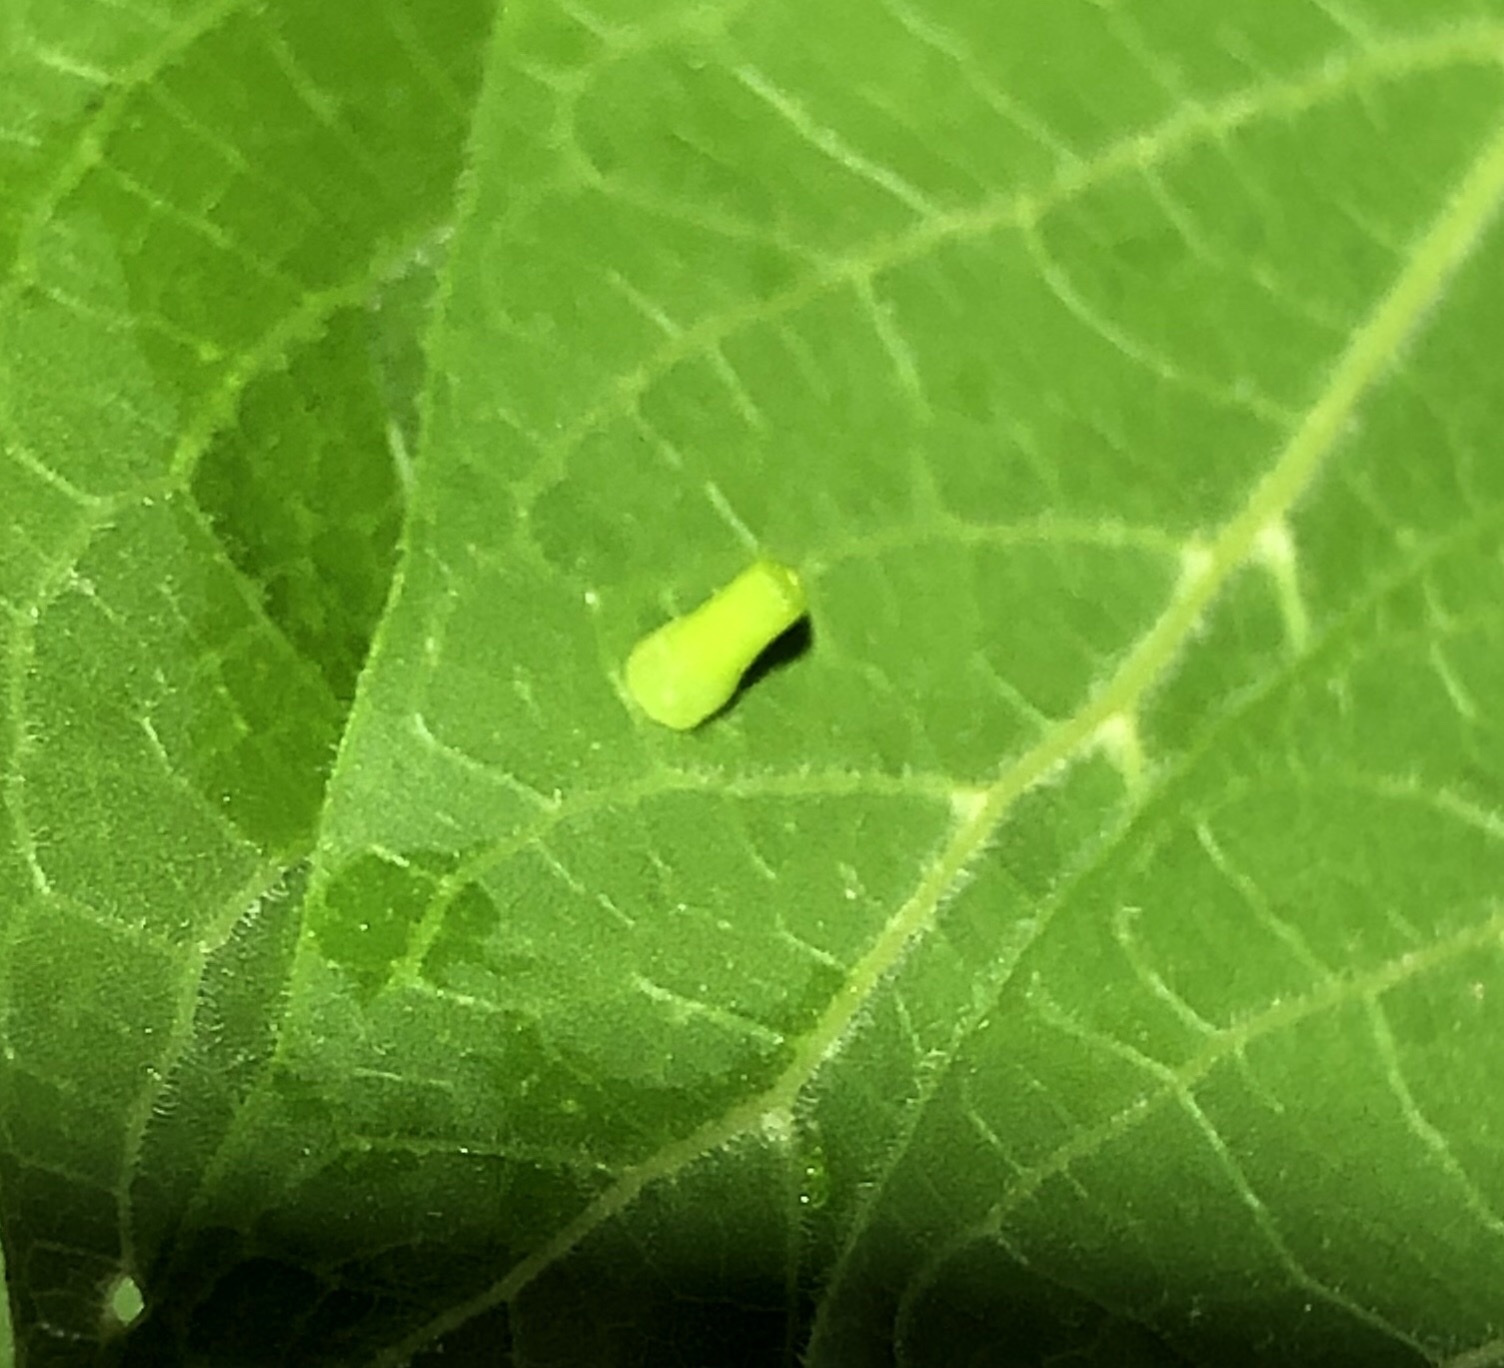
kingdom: Animalia
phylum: Arthropoda
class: Insecta
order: Diptera
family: Cecidomyiidae
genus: Celticecis
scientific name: Celticecis aciculata
